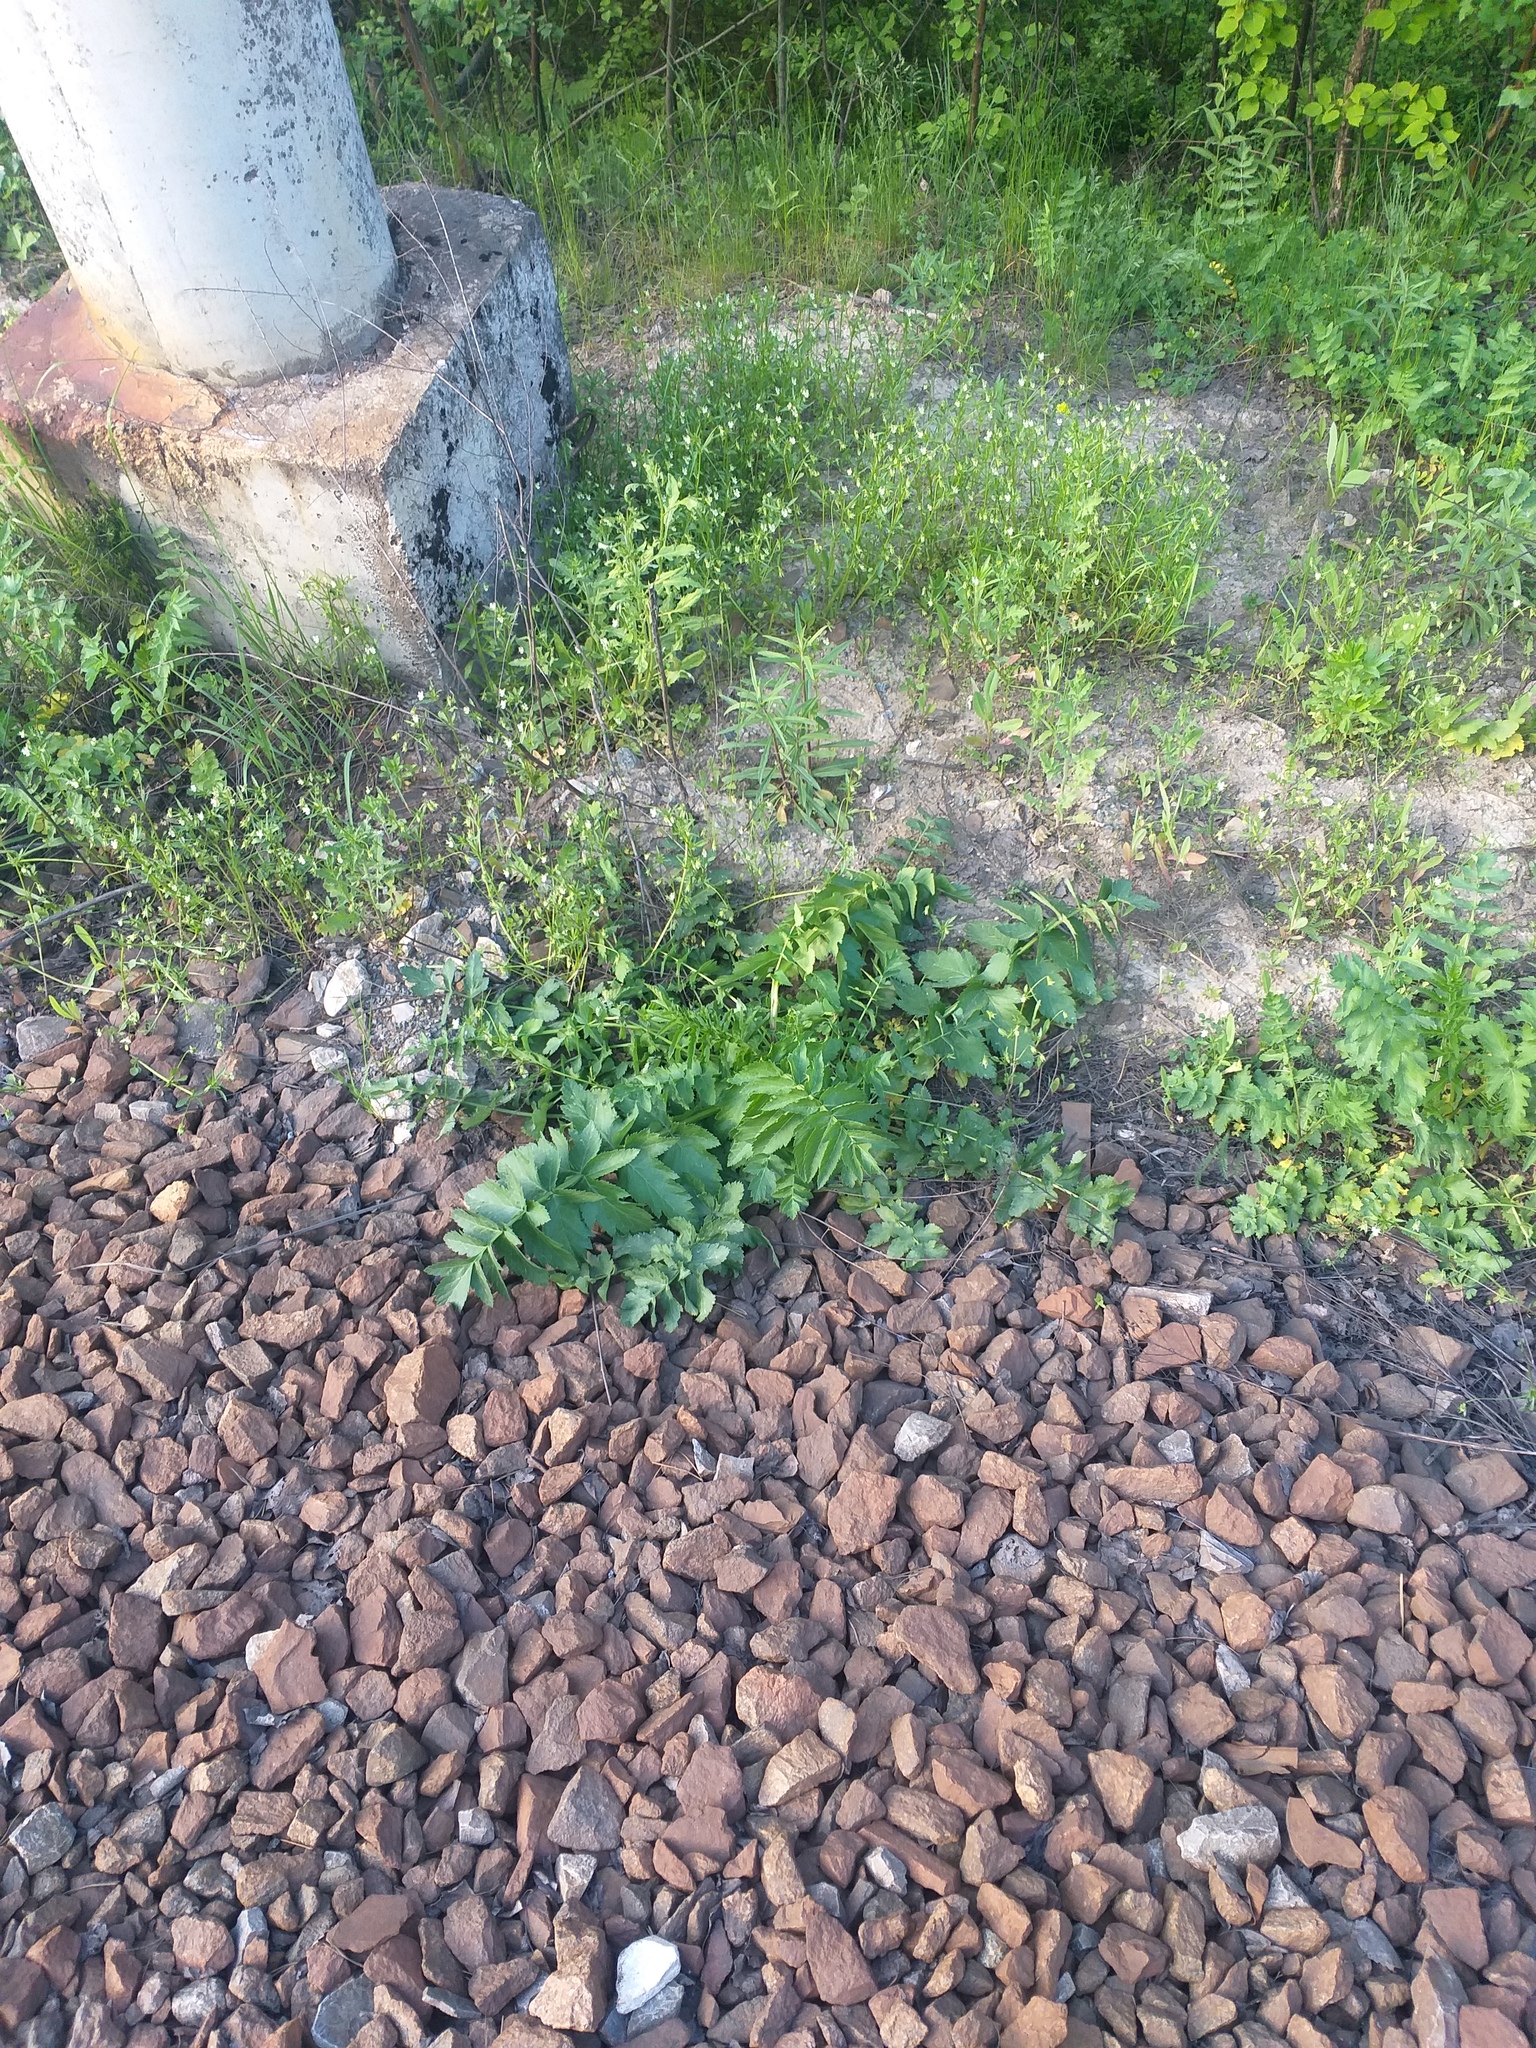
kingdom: Plantae
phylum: Tracheophyta
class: Magnoliopsida
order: Apiales
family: Apiaceae
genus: Pastinaca
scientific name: Pastinaca sativa
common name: Wild parsnip
